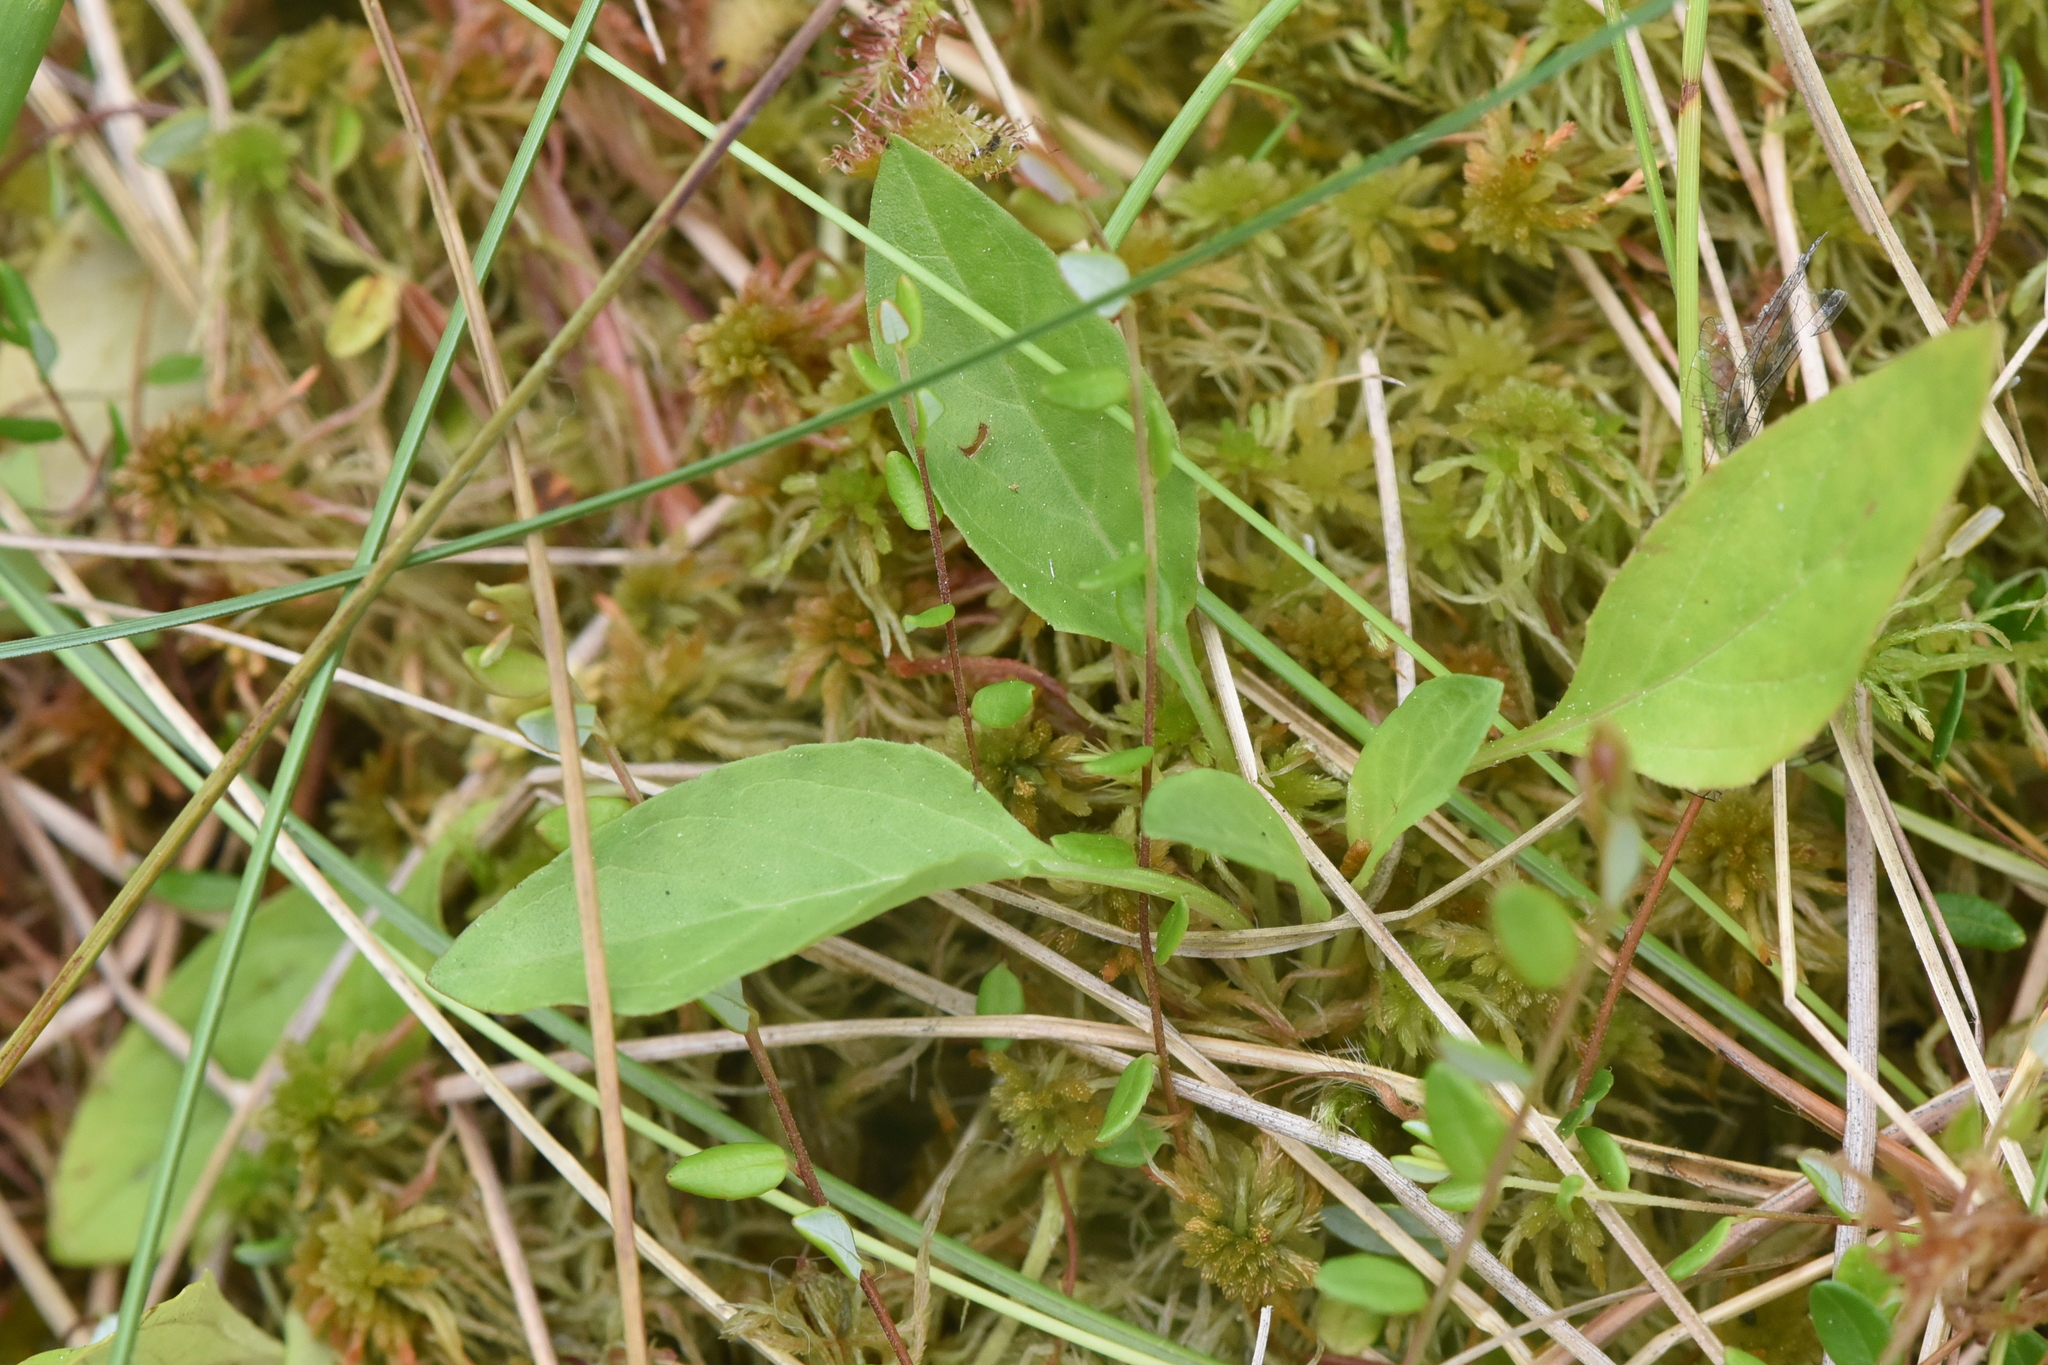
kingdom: Plantae
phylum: Tracheophyta
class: Magnoliopsida
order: Lamiales
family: Lamiaceae
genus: Prunella
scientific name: Prunella vulgaris
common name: Heal-all
